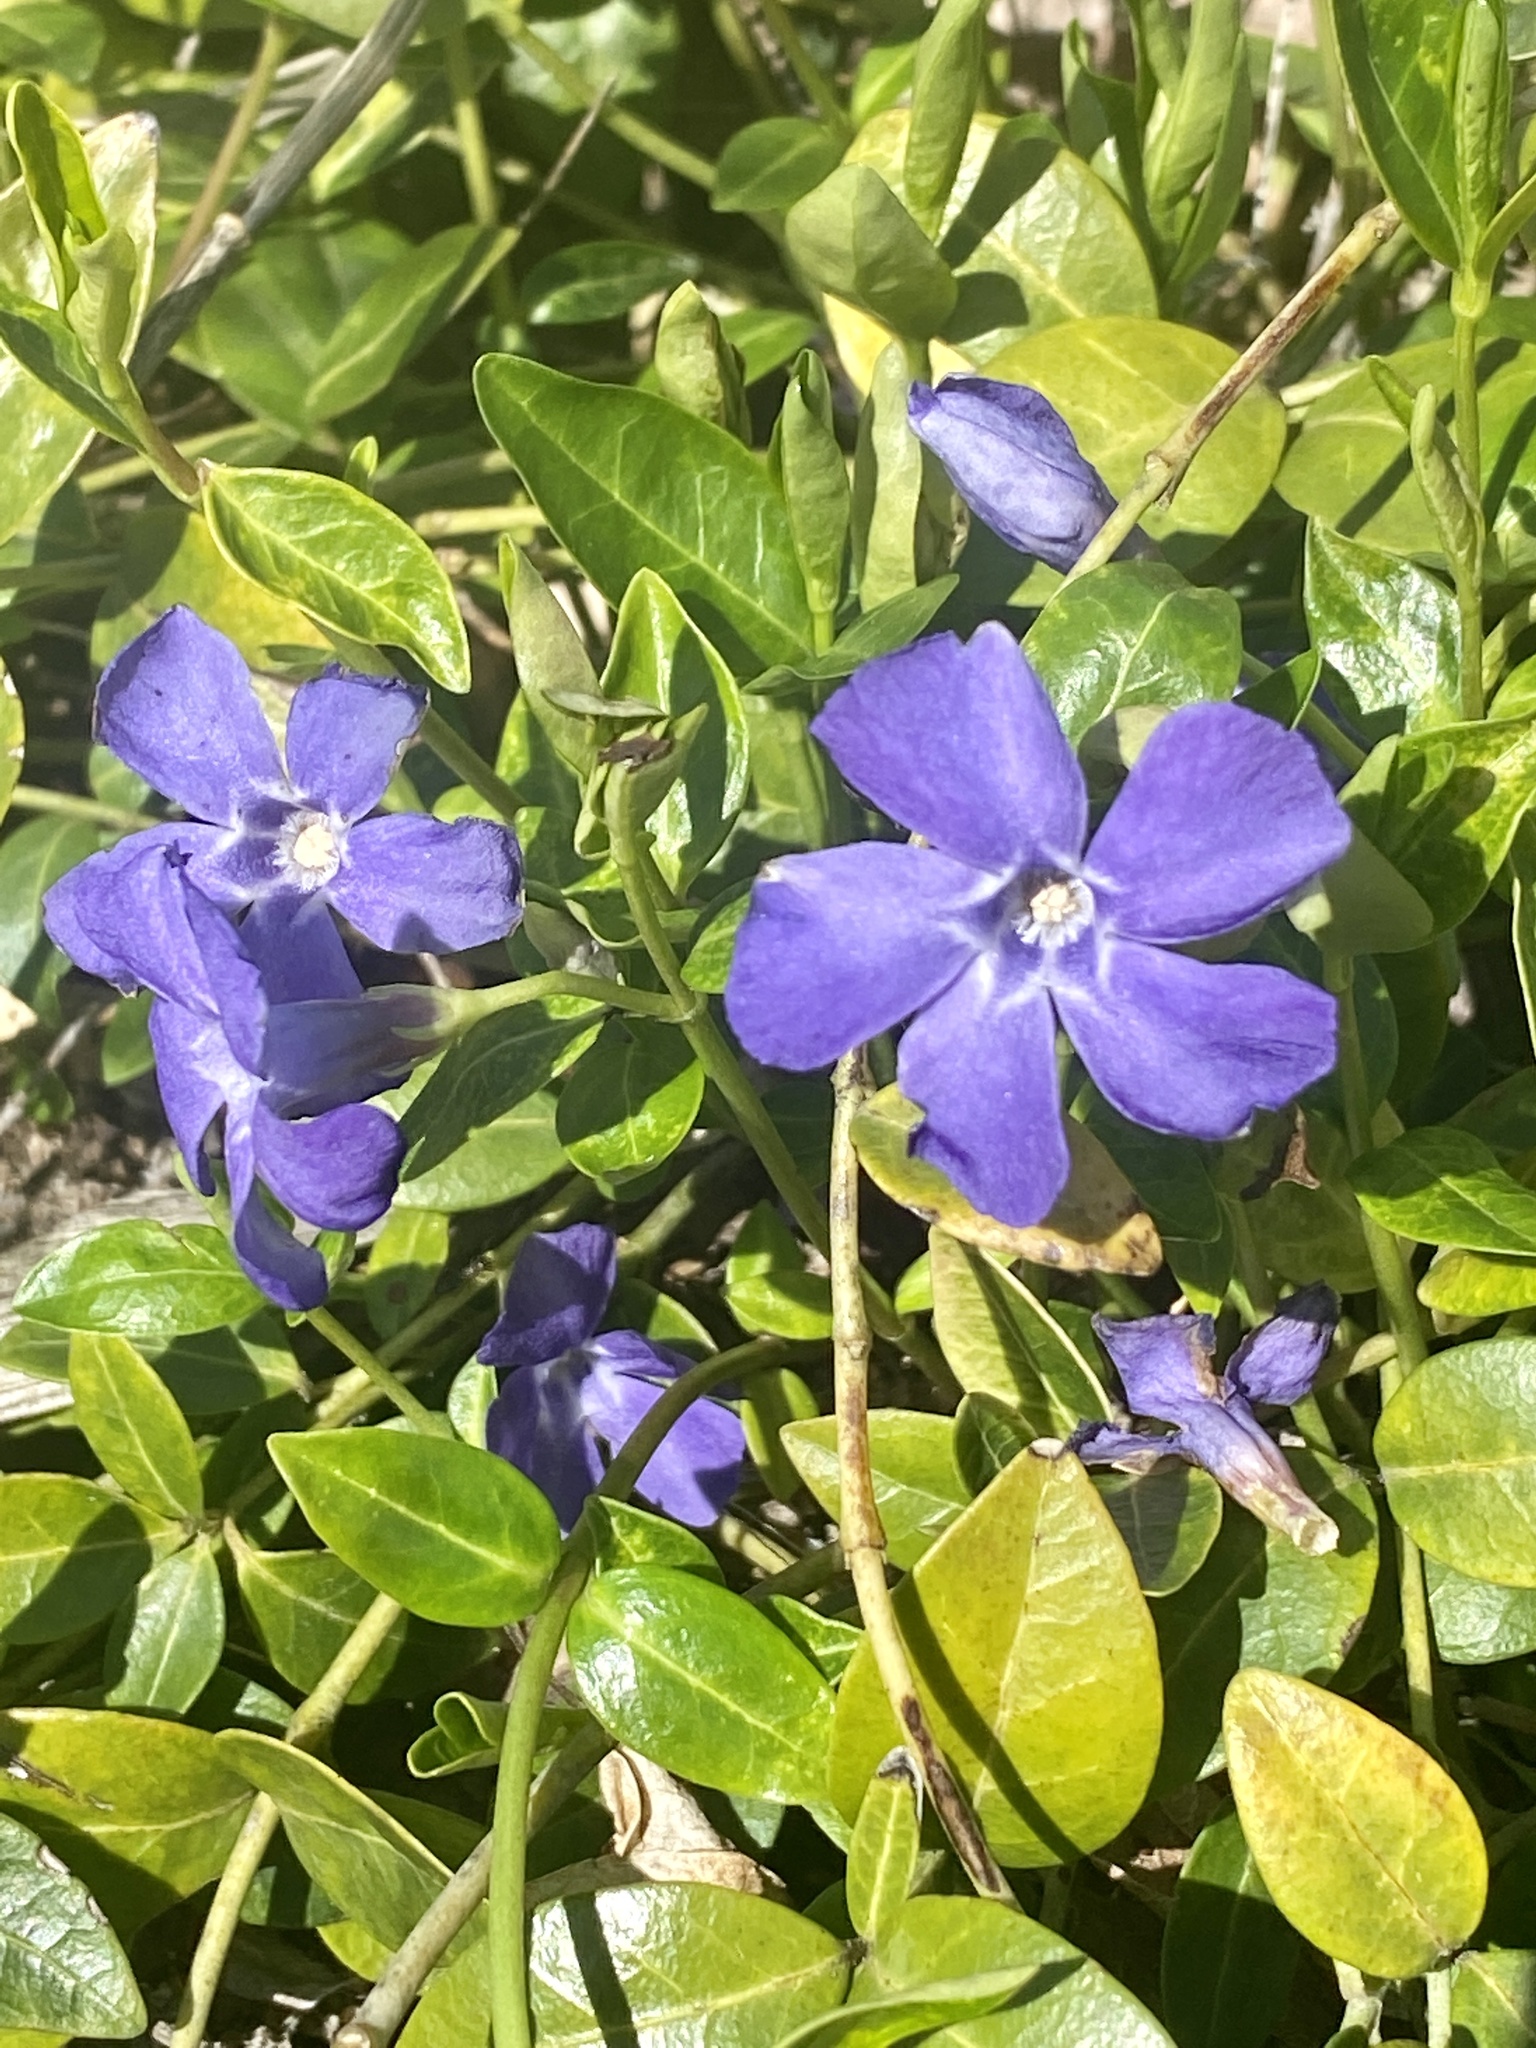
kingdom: Plantae
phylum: Tracheophyta
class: Magnoliopsida
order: Gentianales
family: Apocynaceae
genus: Vinca
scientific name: Vinca minor
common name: Lesser periwinkle
